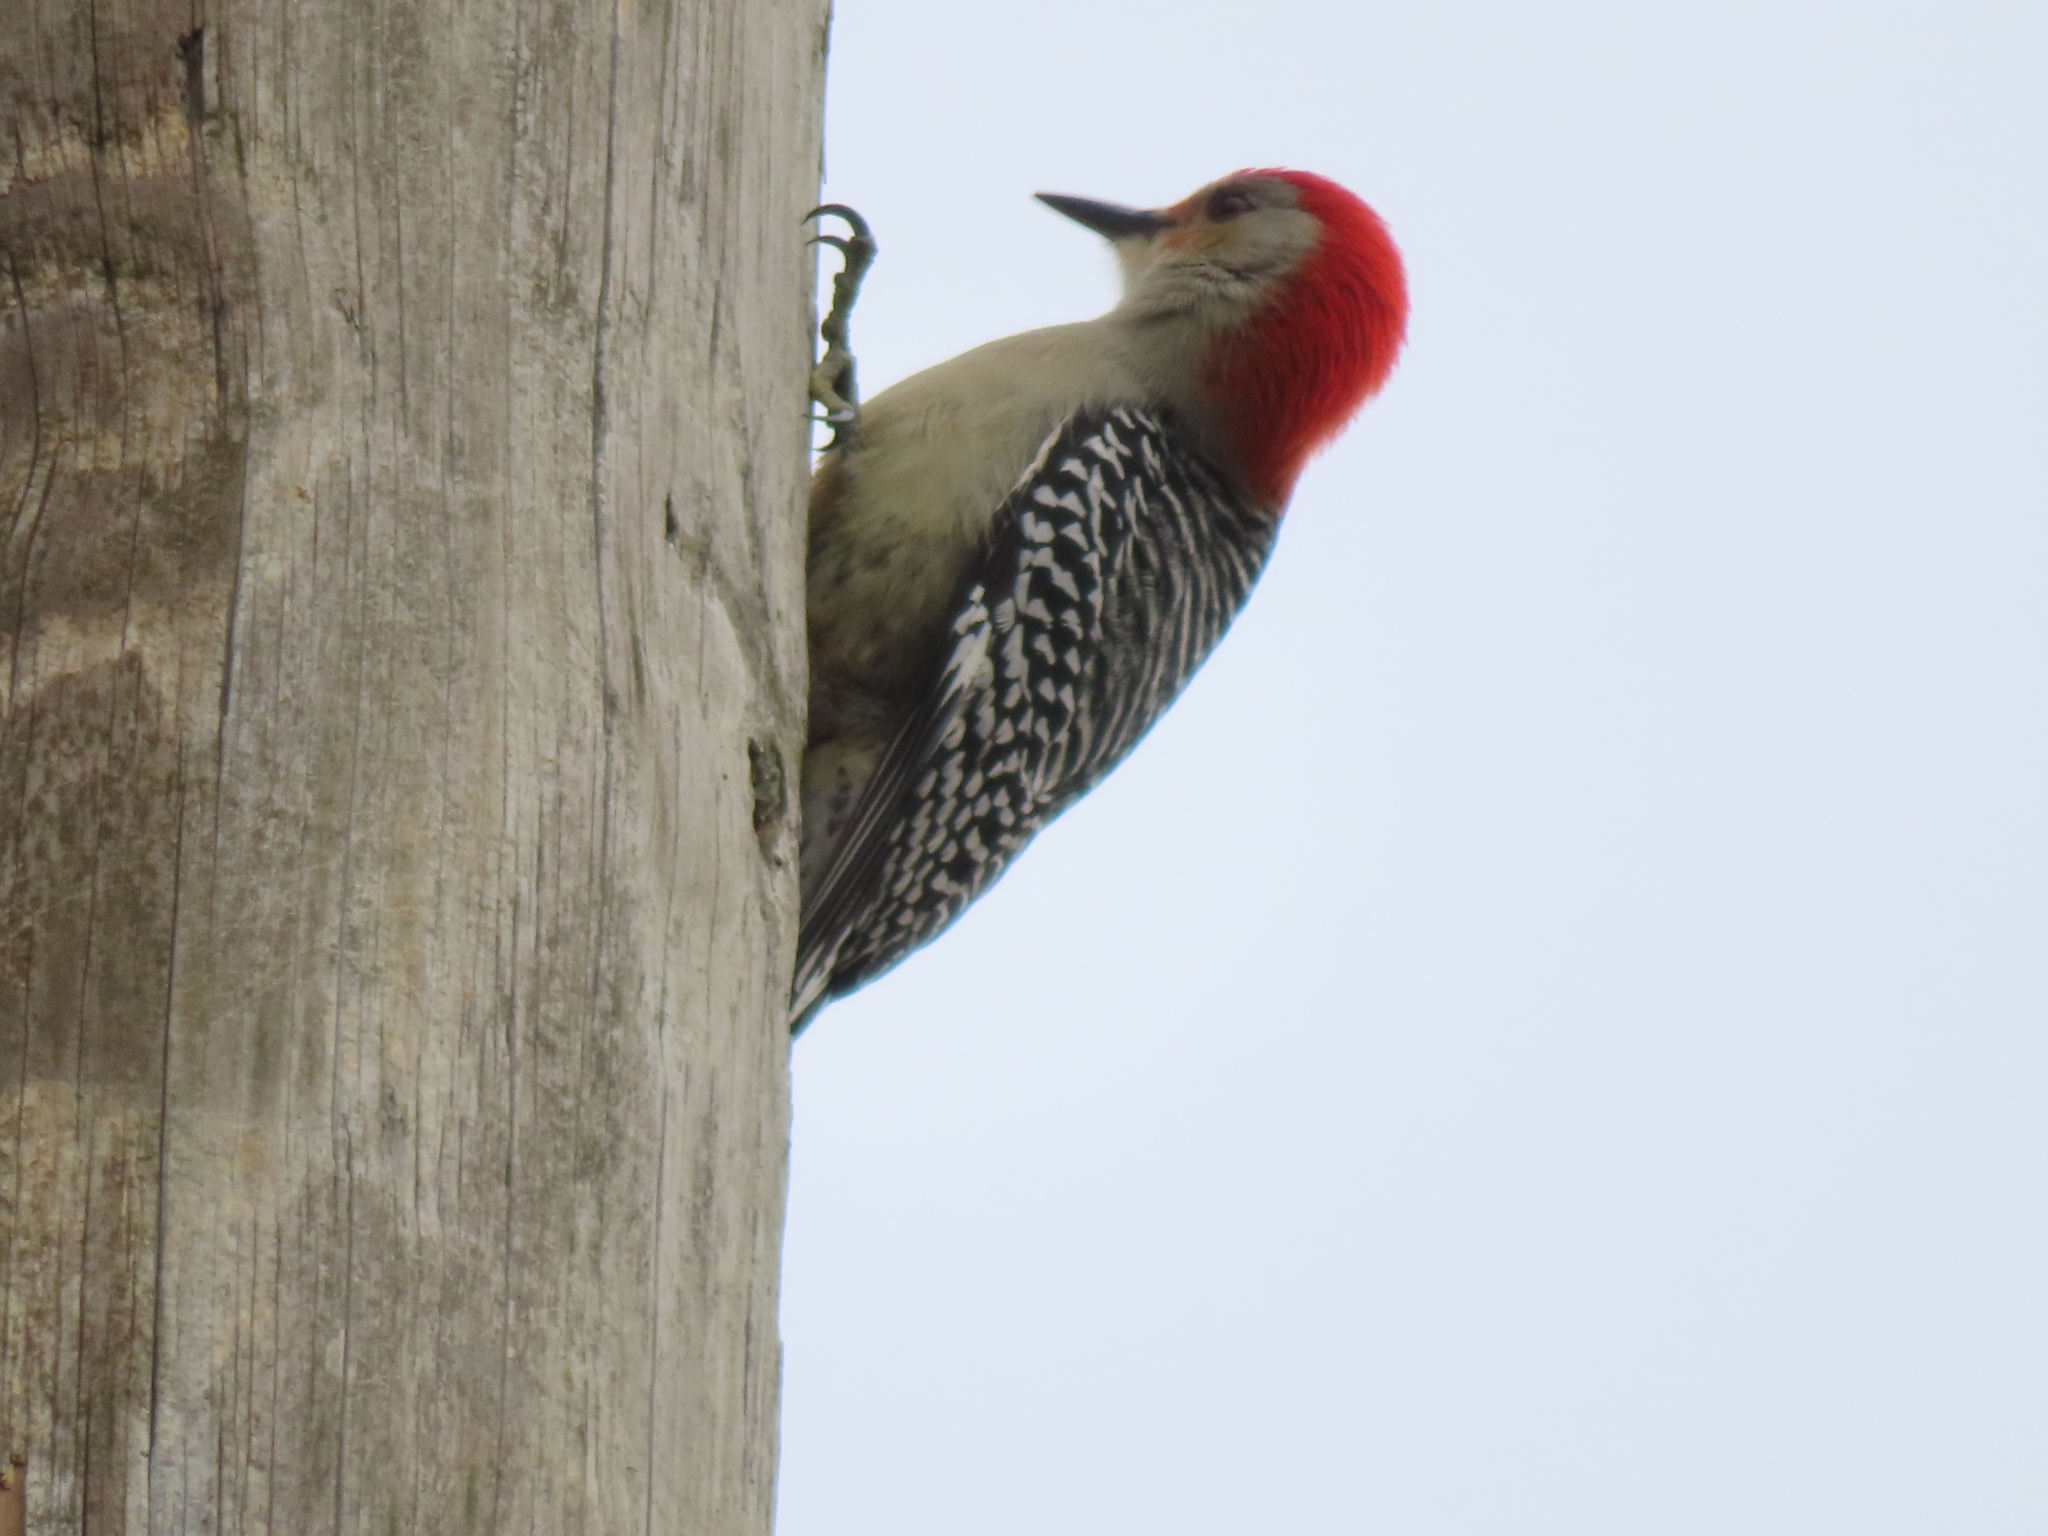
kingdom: Animalia
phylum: Chordata
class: Aves
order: Piciformes
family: Picidae
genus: Melanerpes
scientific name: Melanerpes carolinus
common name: Red-bellied woodpecker
